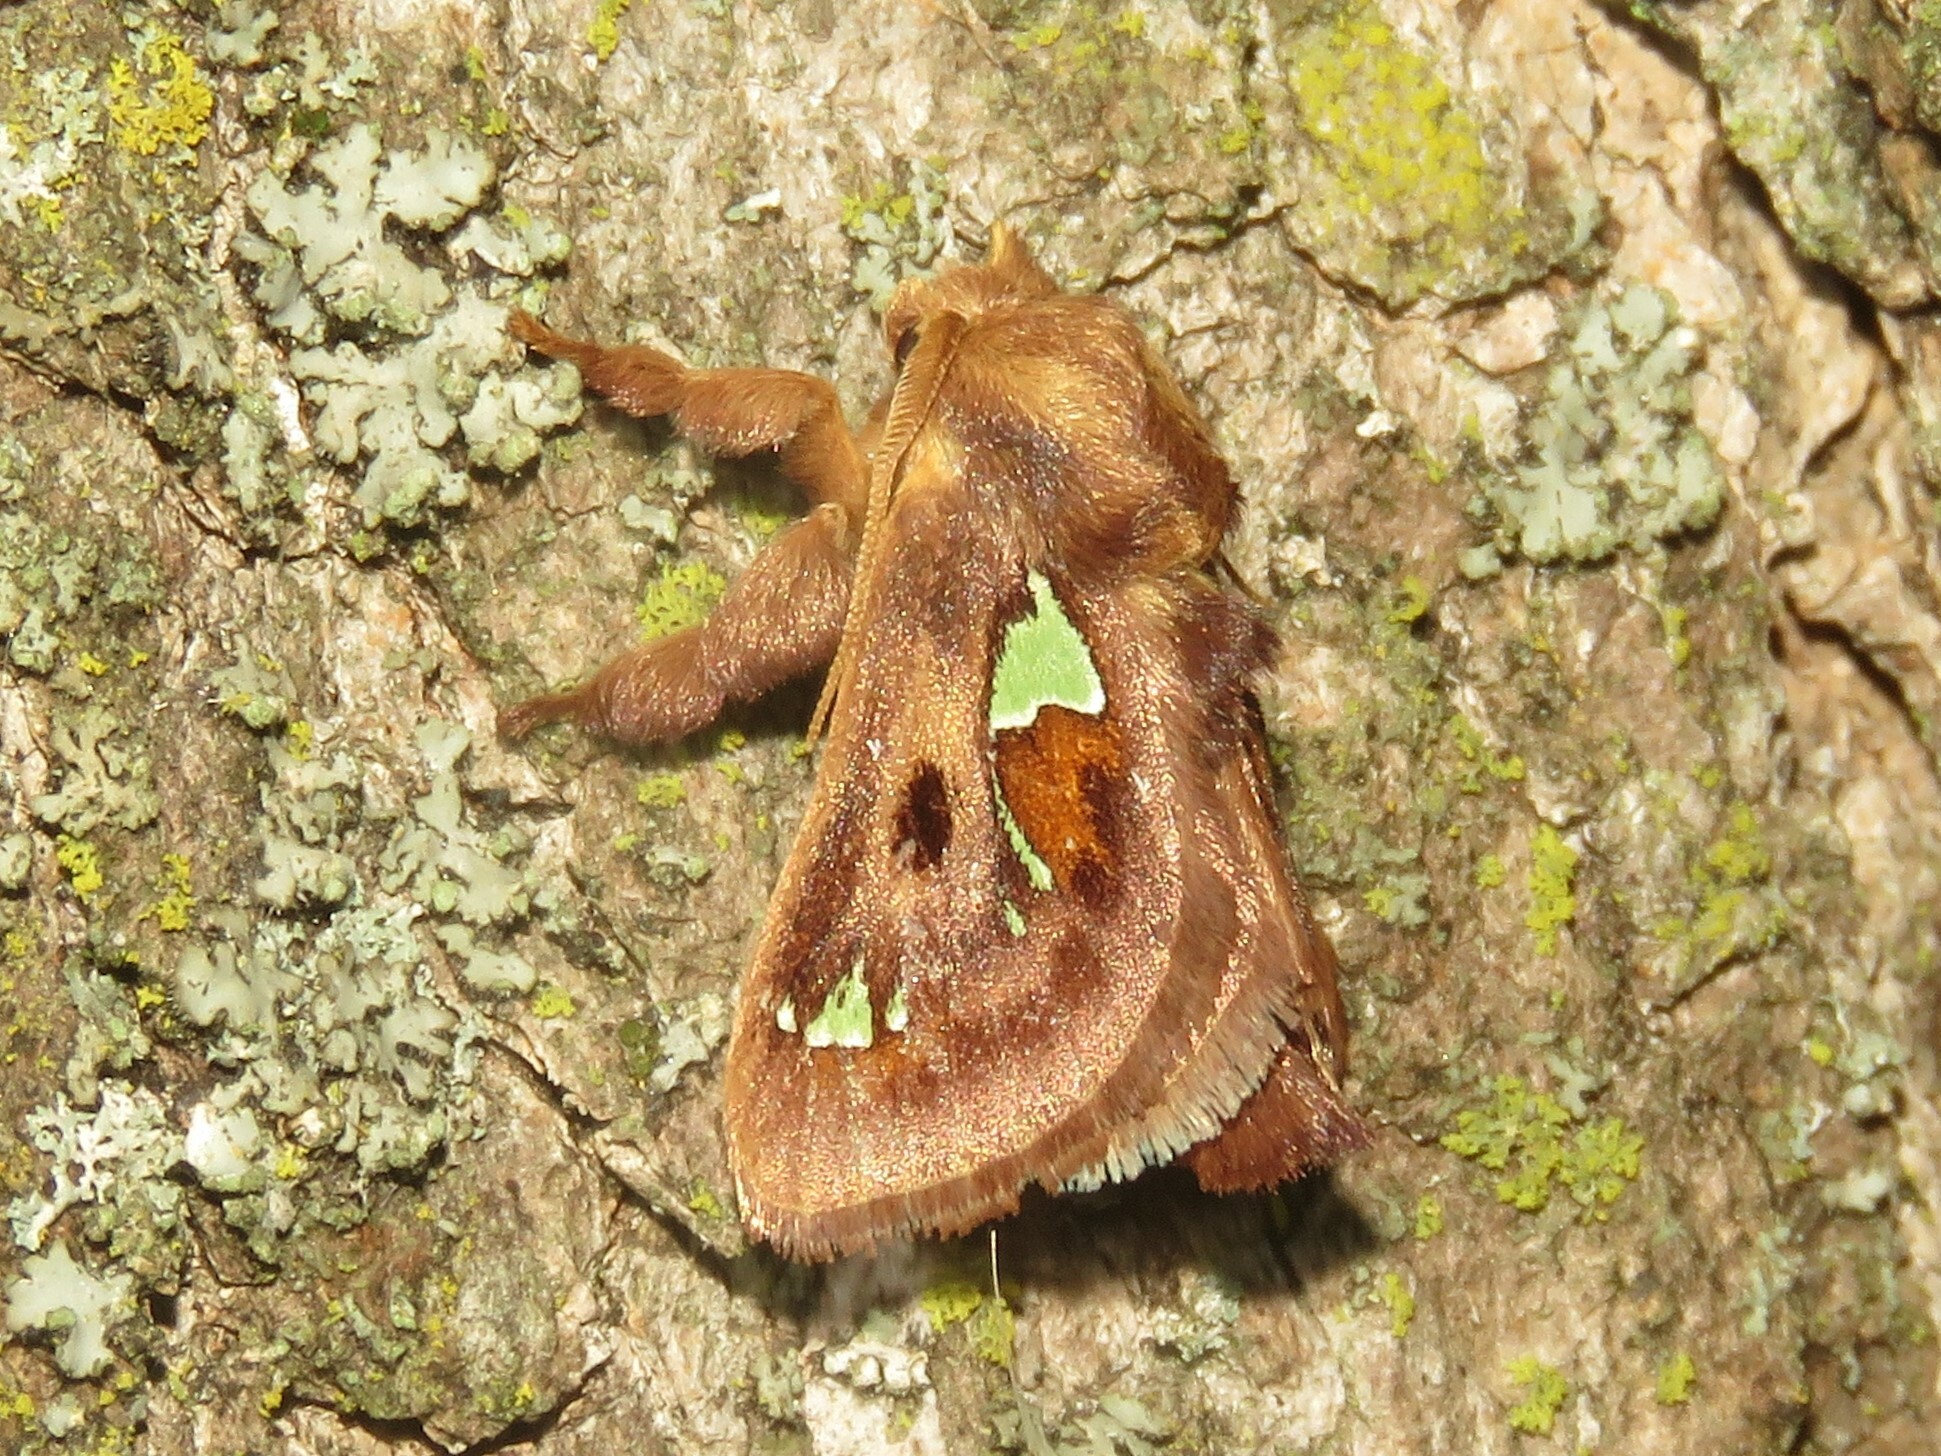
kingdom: Animalia
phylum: Arthropoda
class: Insecta
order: Lepidoptera
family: Limacodidae
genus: Euclea
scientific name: Euclea delphinii
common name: Spiny oak-slug moth
